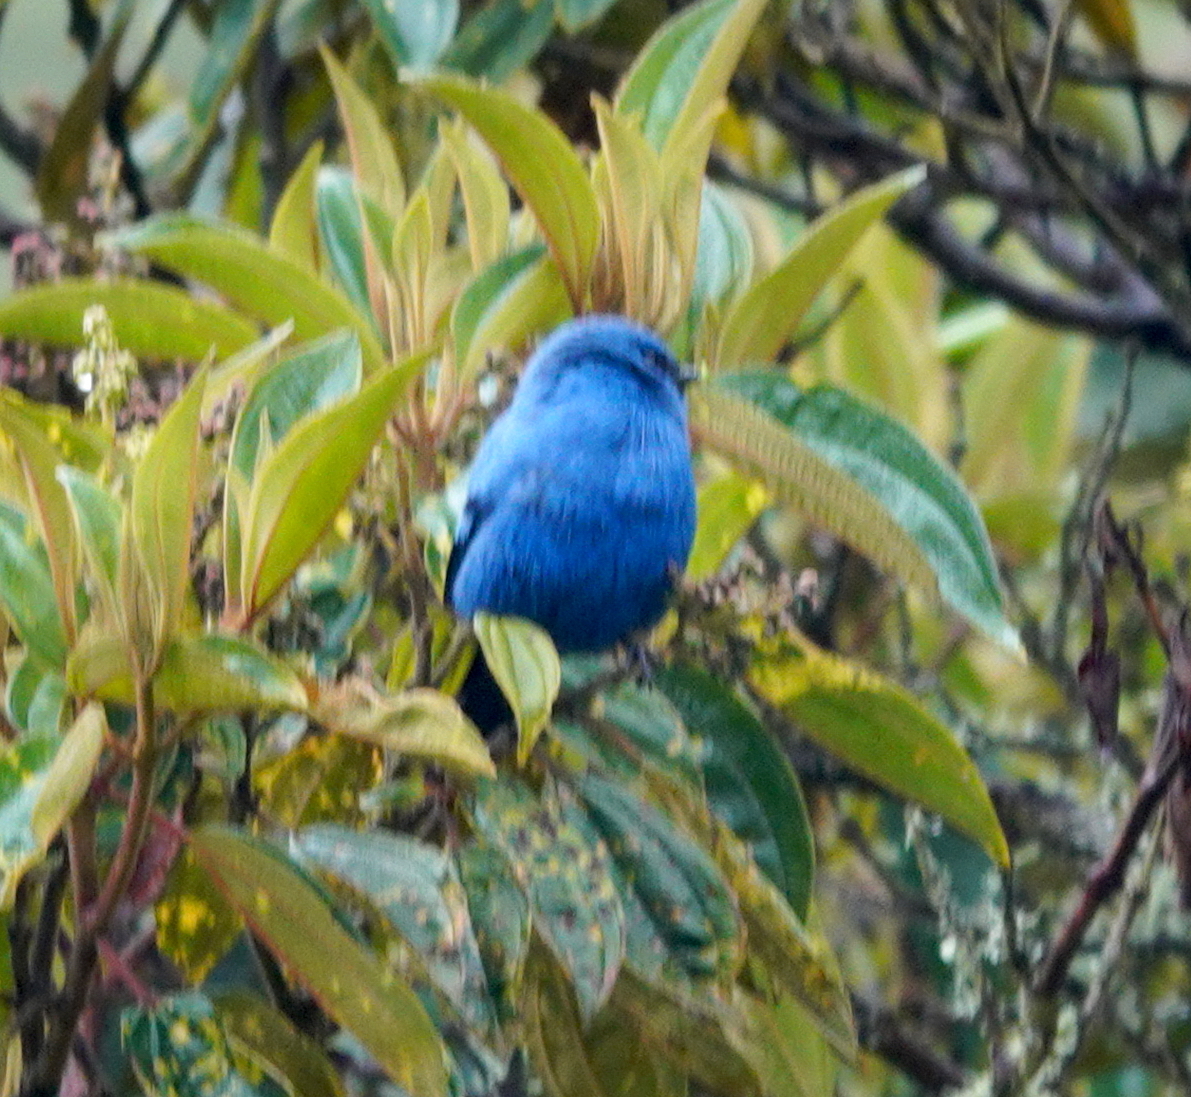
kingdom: Animalia
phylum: Chordata
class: Aves
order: Passeriformes
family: Thraupidae
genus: Tangara
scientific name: Tangara vassorii
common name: Blue-and-black tanager
